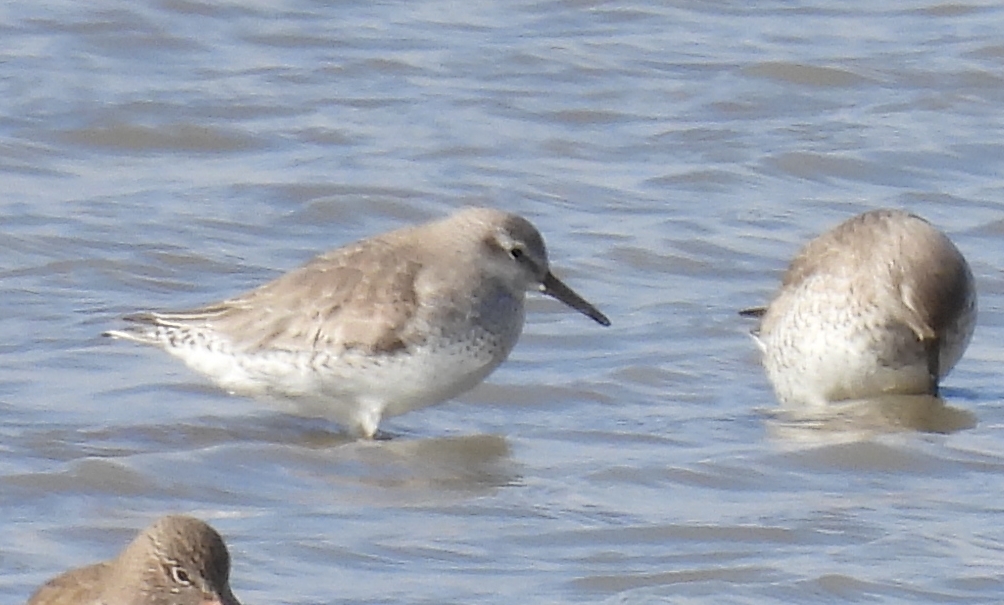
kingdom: Animalia
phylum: Chordata
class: Aves
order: Charadriiformes
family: Scolopacidae
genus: Calidris
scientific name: Calidris canutus
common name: Red knot
